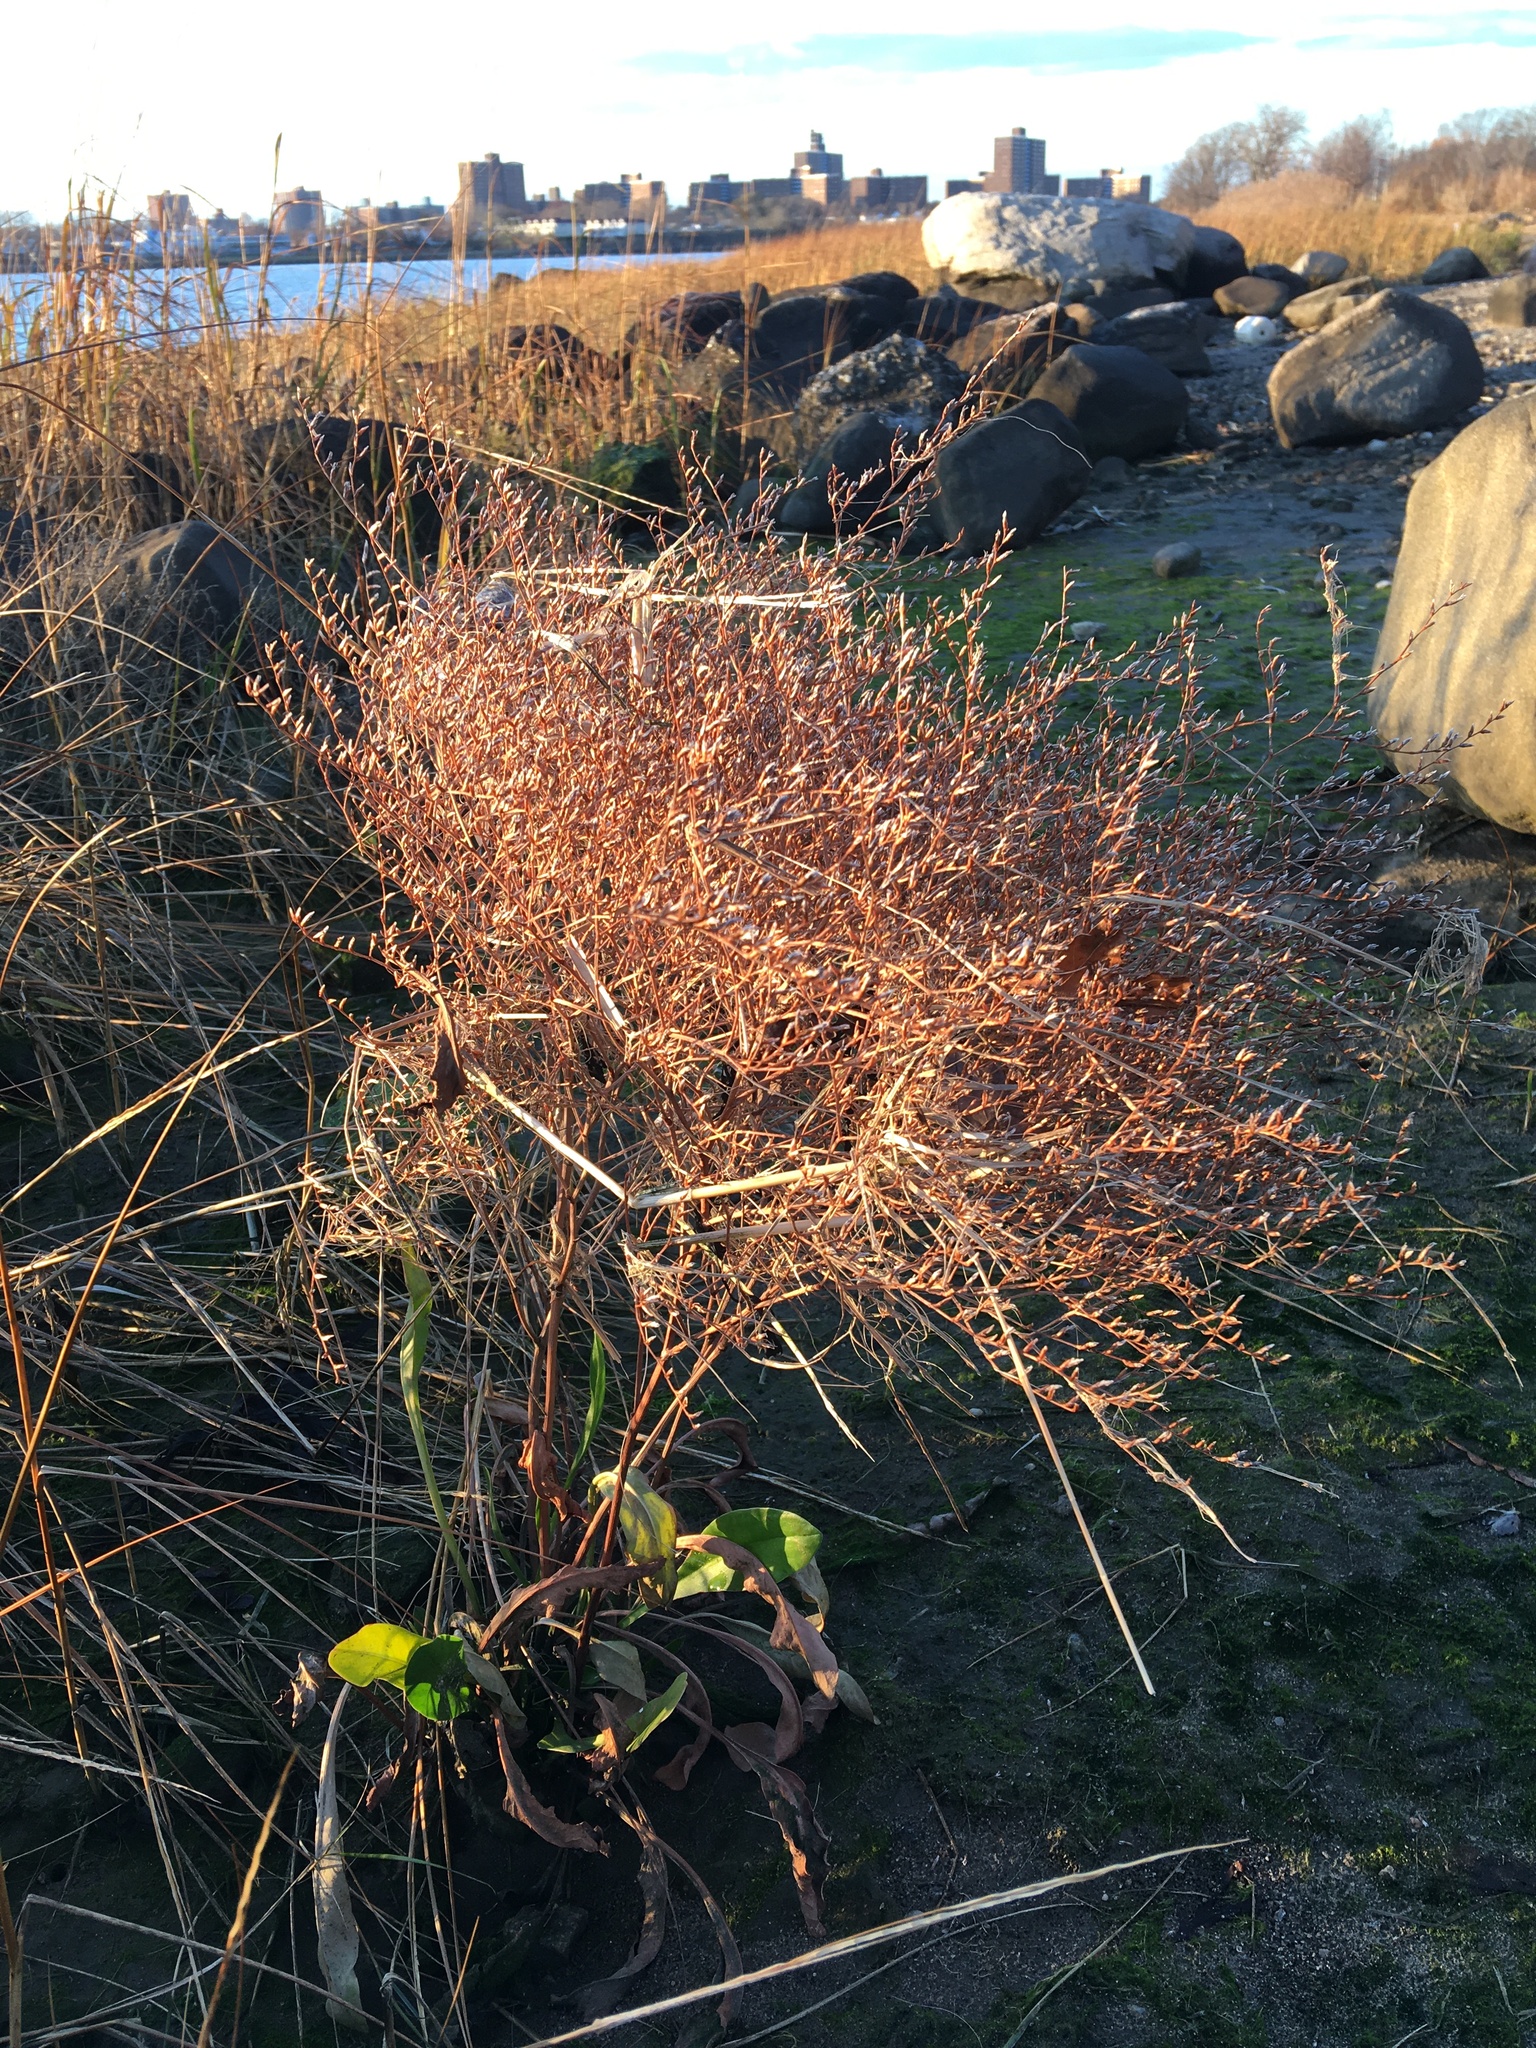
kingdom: Plantae
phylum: Tracheophyta
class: Magnoliopsida
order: Caryophyllales
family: Plumbaginaceae
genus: Limonium
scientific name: Limonium carolinianum
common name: Carolina sea lavender
